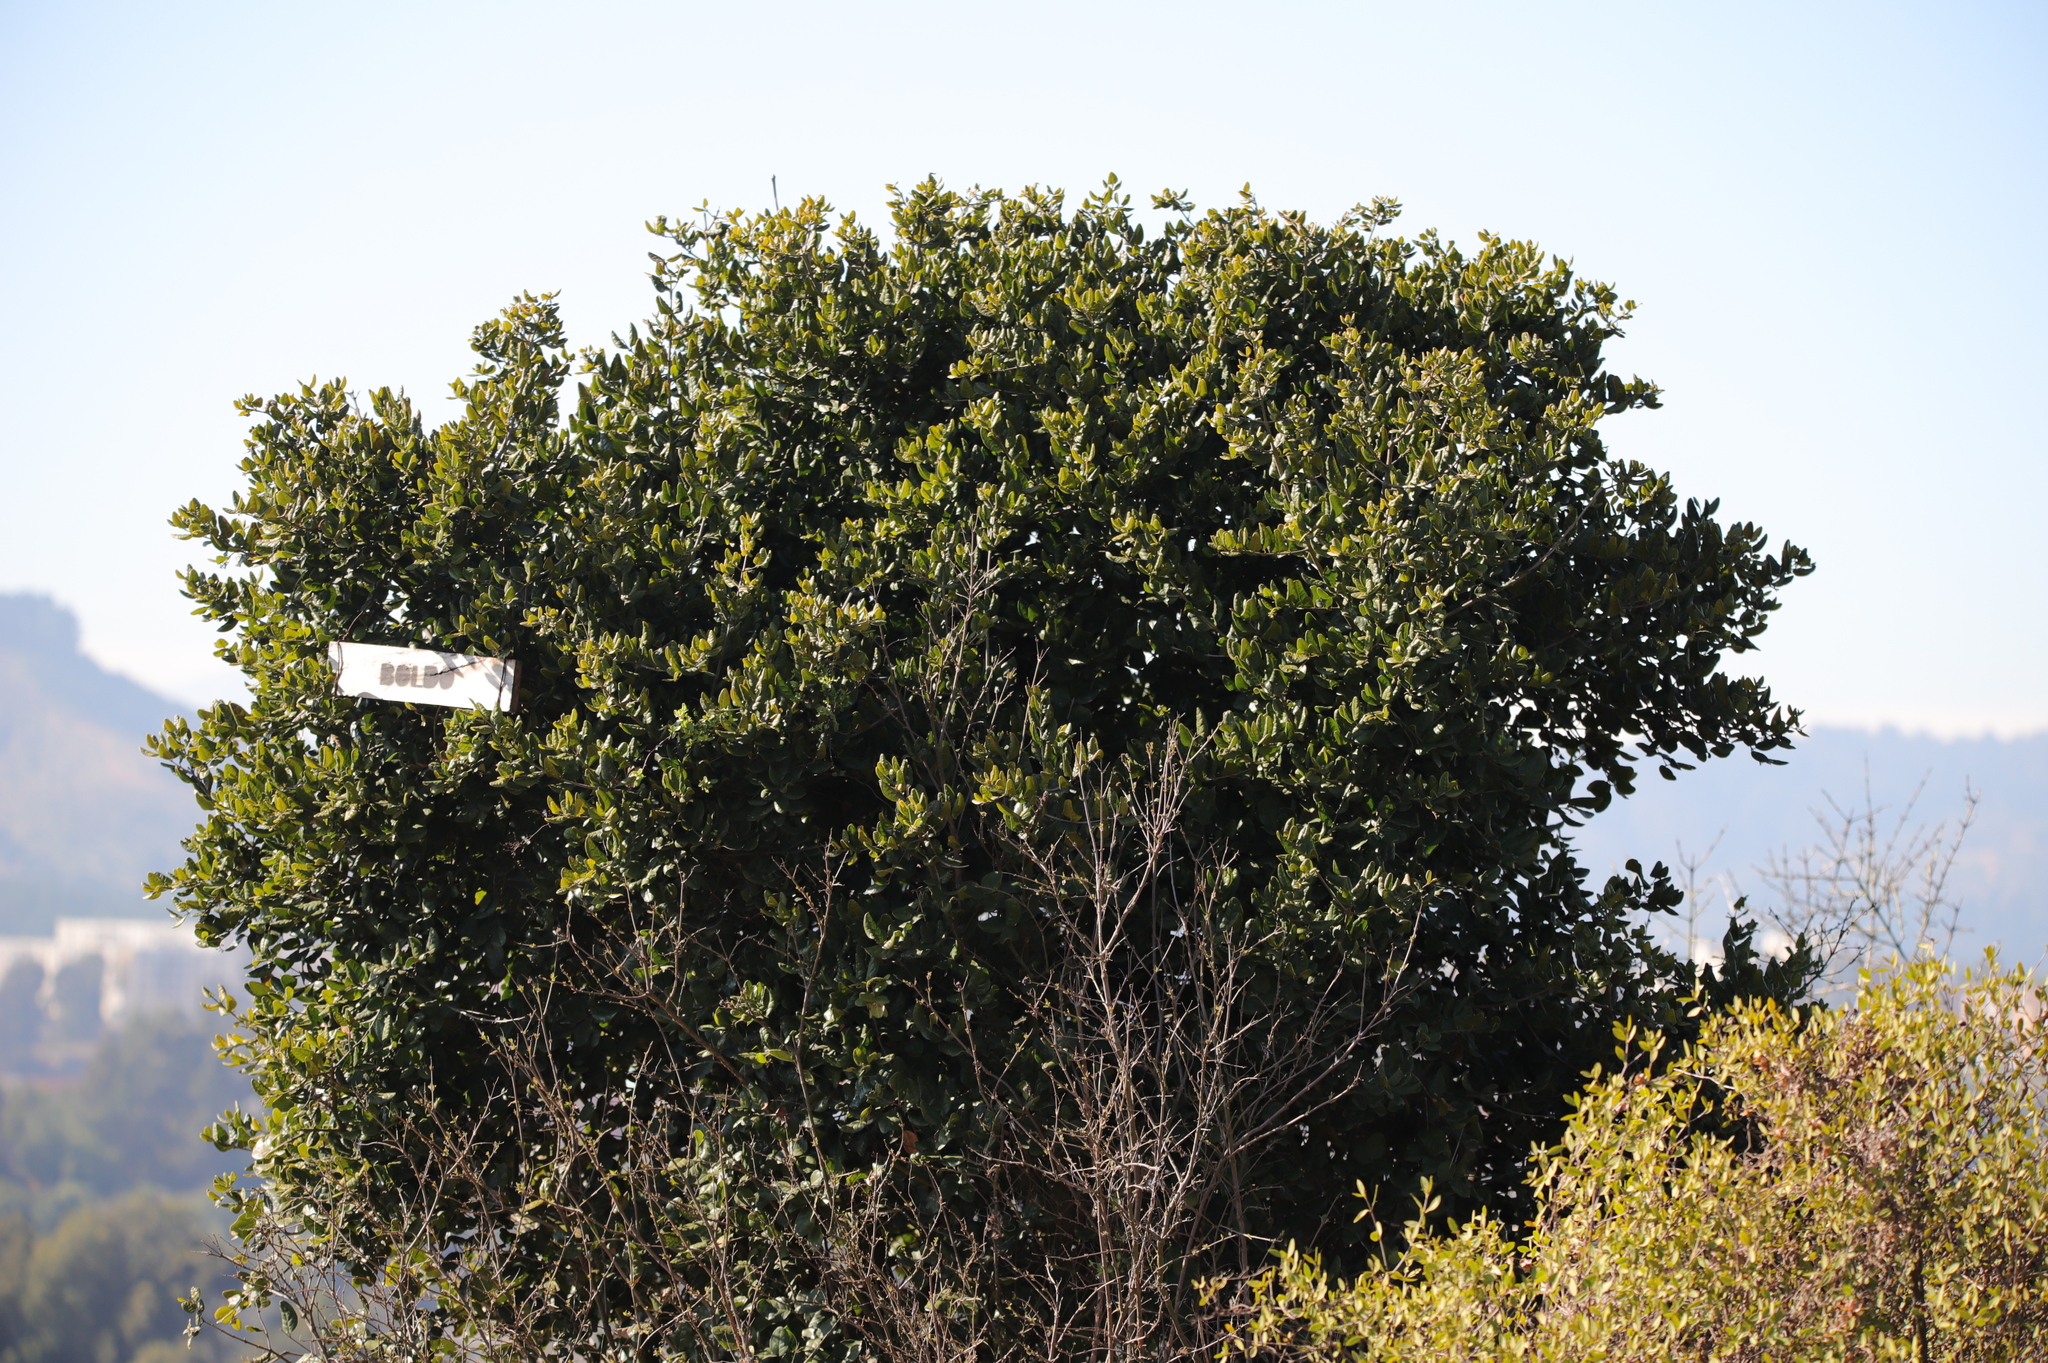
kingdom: Plantae
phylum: Tracheophyta
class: Magnoliopsida
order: Laurales
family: Monimiaceae
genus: Peumus
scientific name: Peumus boldus
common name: Boldo
